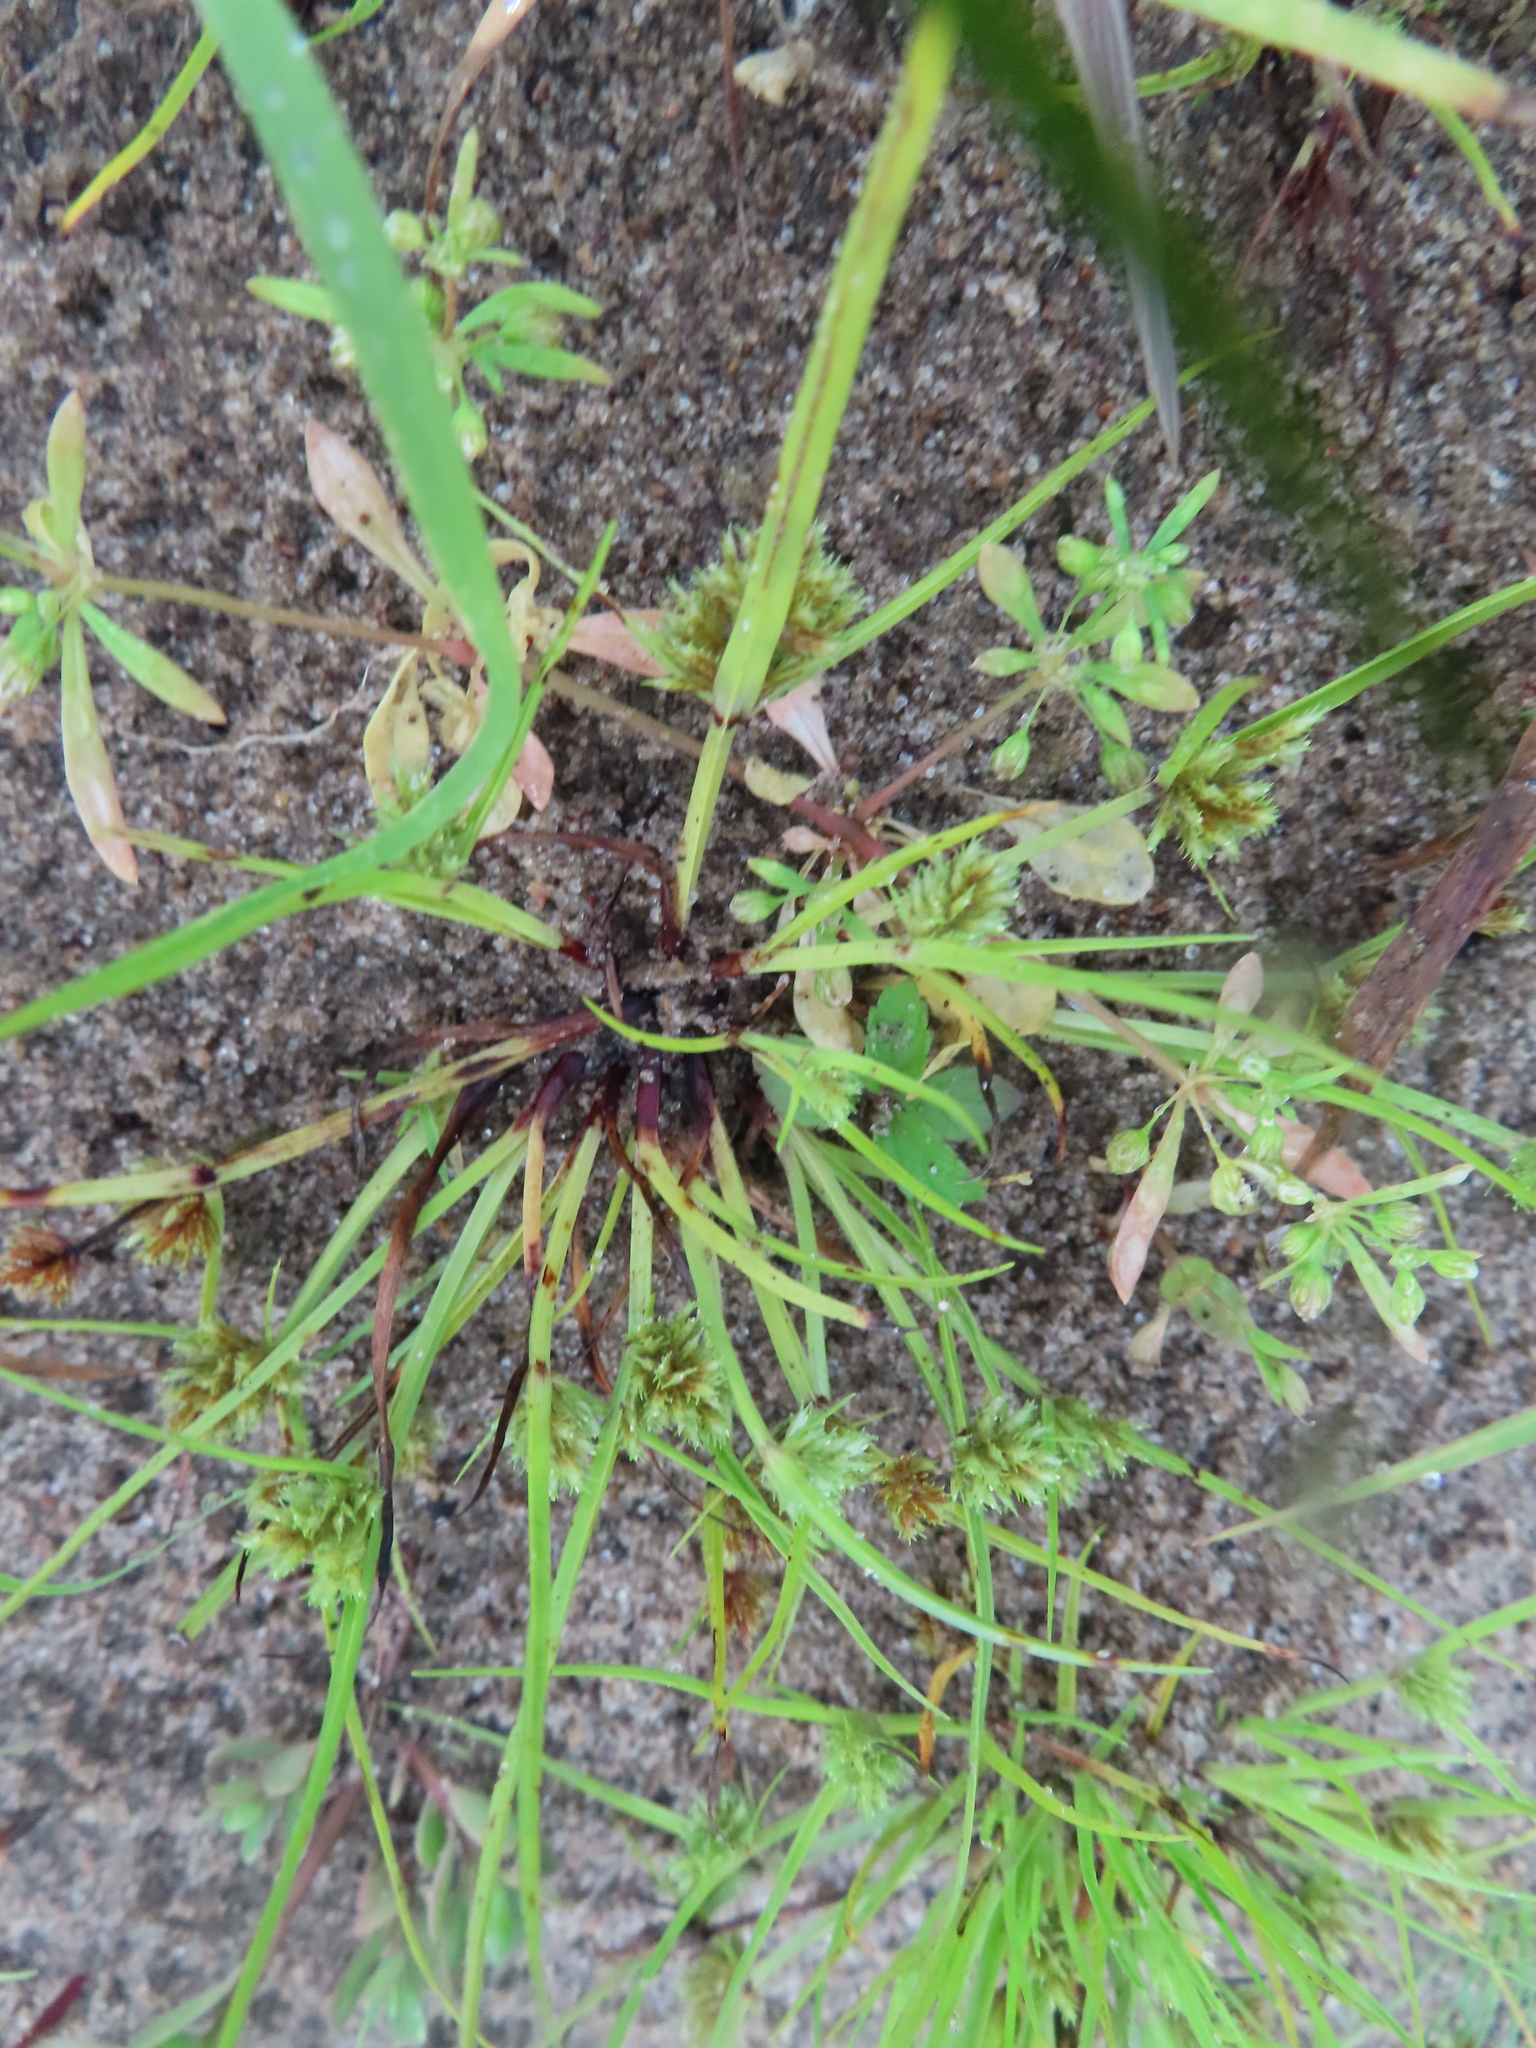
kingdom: Plantae
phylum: Tracheophyta
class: Liliopsida
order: Poales
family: Cyperaceae
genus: Cyperus
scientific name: Cyperus squarrosus
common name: Awned cyperus
